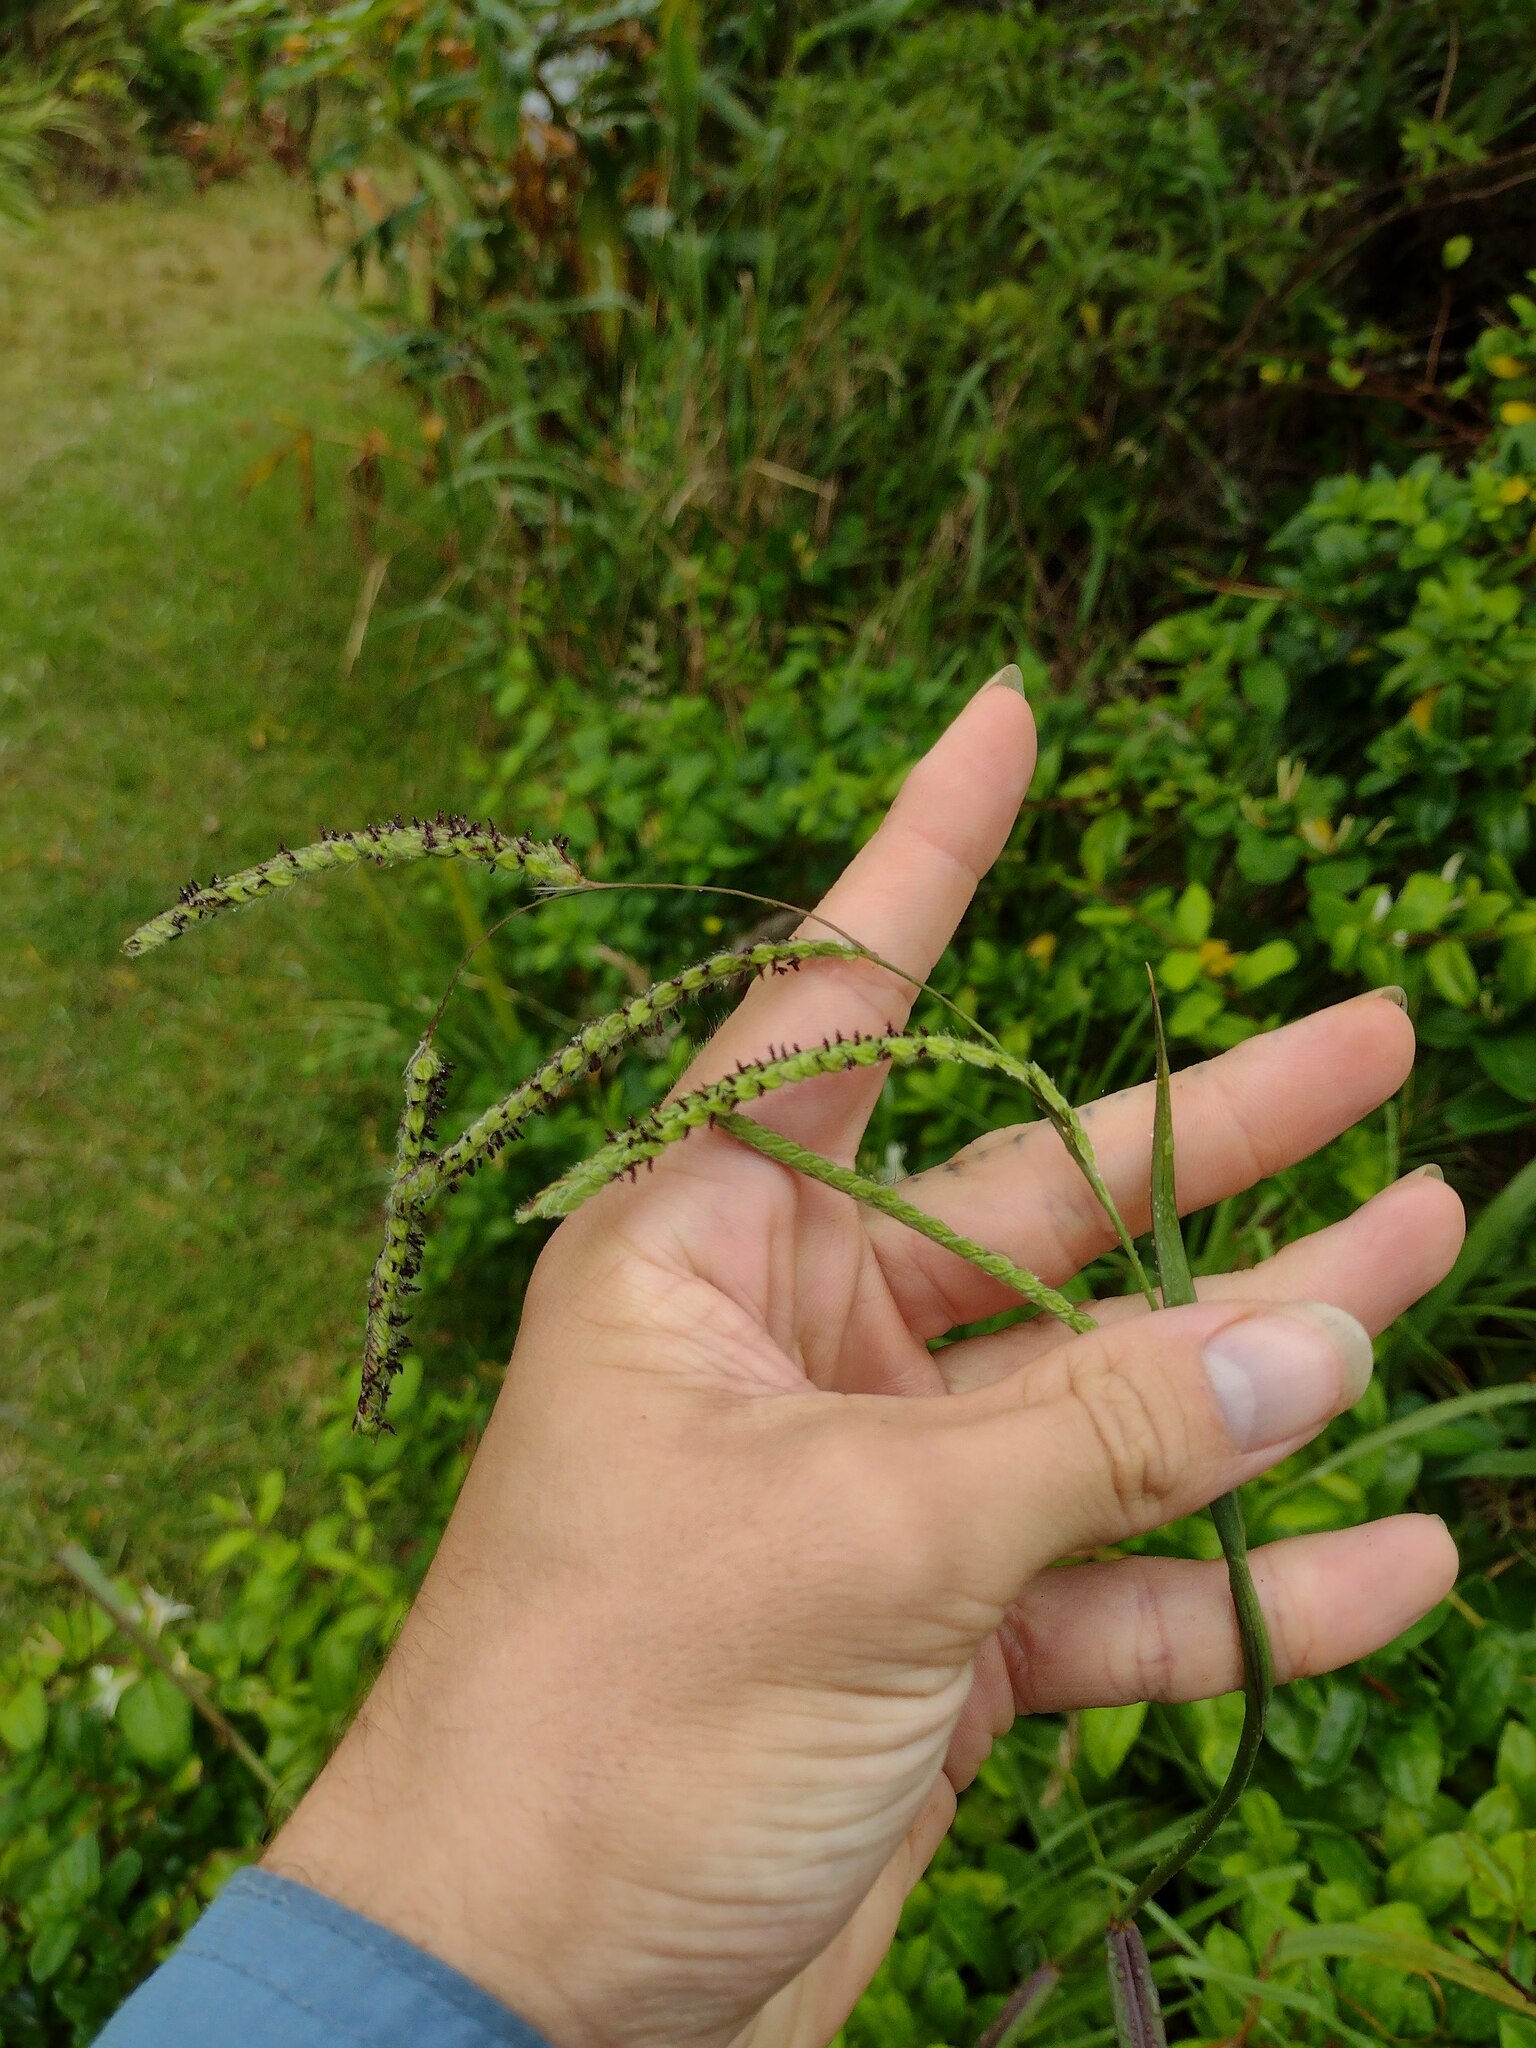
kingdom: Plantae
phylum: Tracheophyta
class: Liliopsida
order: Poales
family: Poaceae
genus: Paspalum
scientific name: Paspalum dilatatum
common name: Dallisgrass
